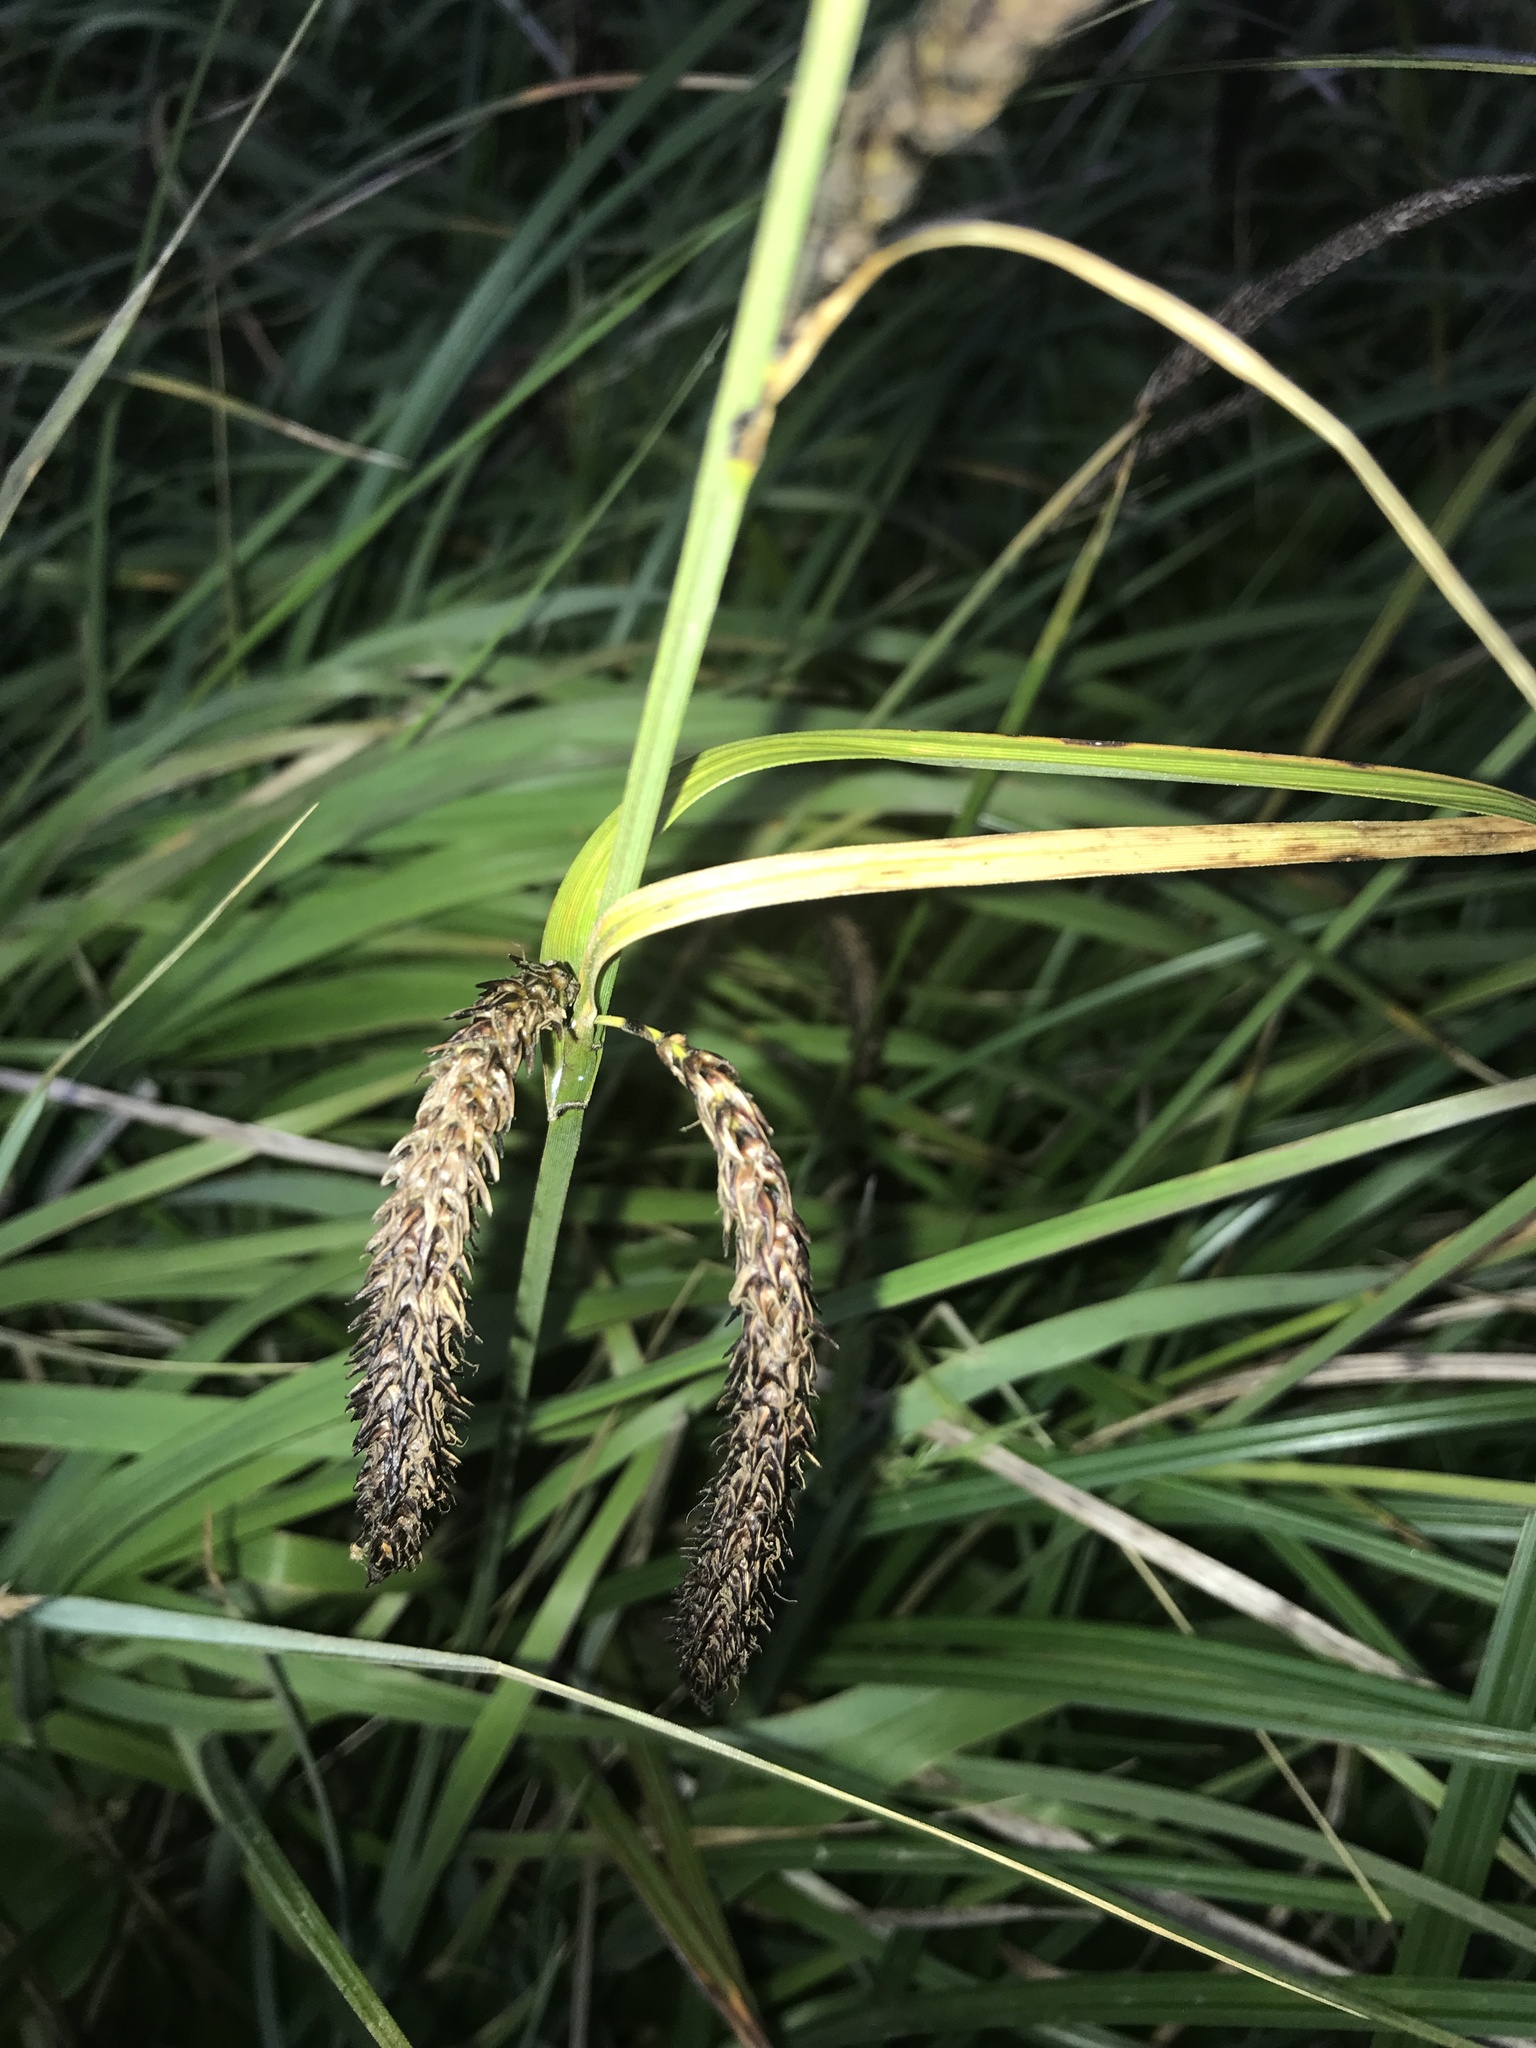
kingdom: Plantae
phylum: Tracheophyta
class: Liliopsida
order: Poales
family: Cyperaceae
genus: Carex
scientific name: Carex obnupta
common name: Slough sedge
